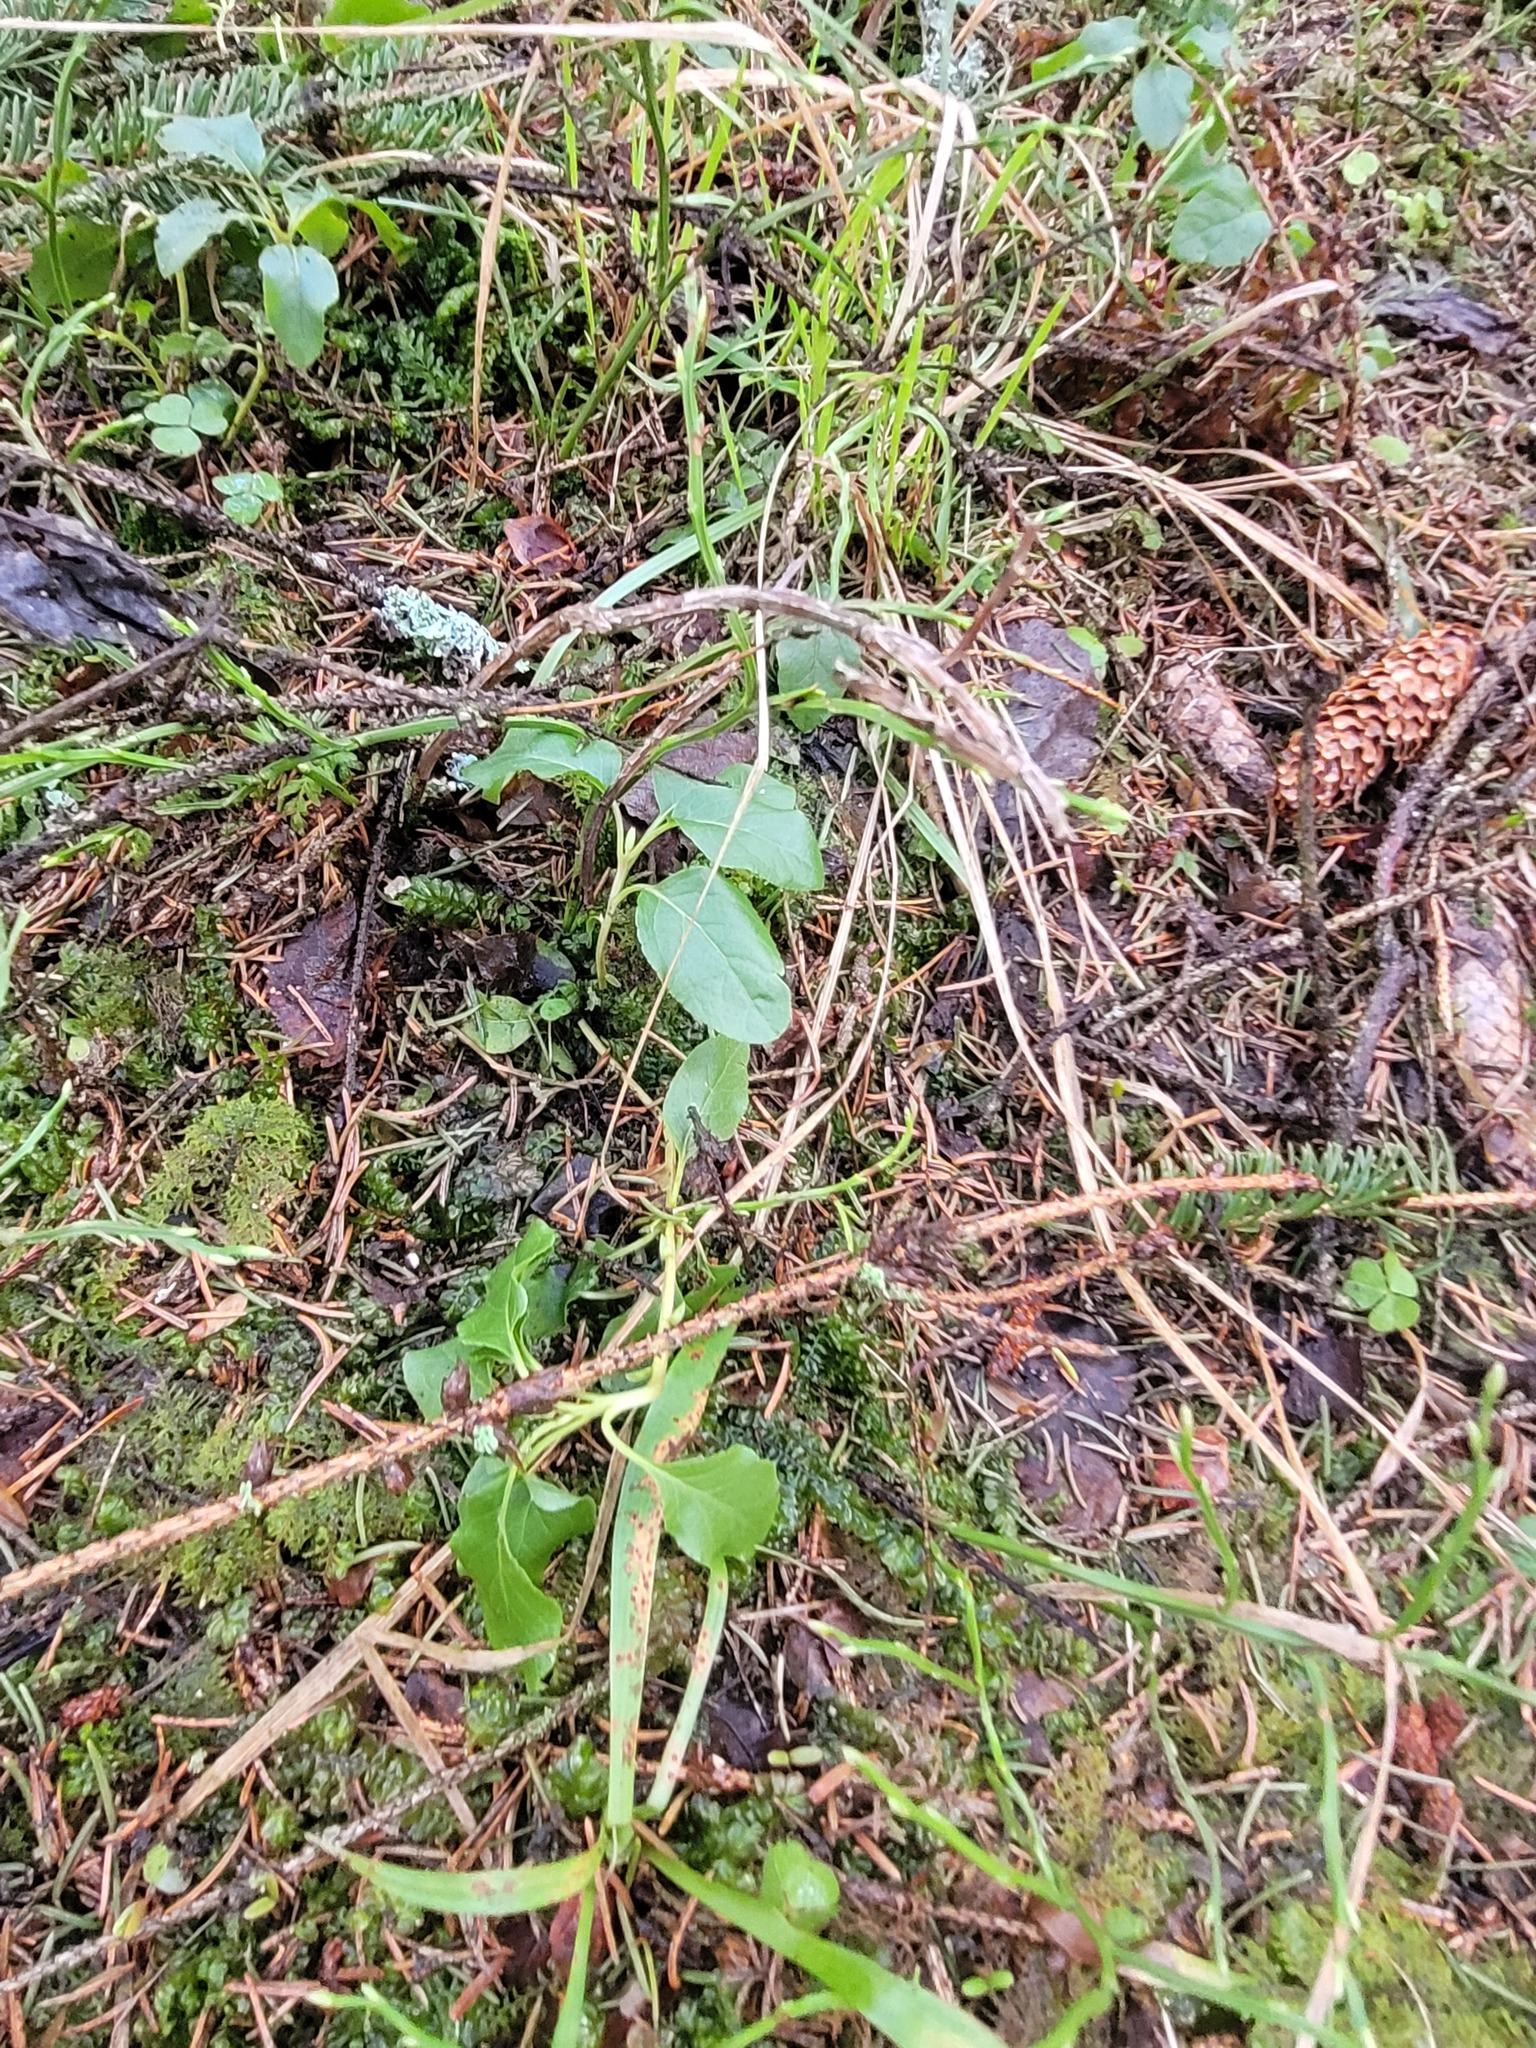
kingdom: Plantae
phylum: Tracheophyta
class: Magnoliopsida
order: Ericales
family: Ericaceae
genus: Orthilia
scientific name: Orthilia secunda
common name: One-sided orthilia
